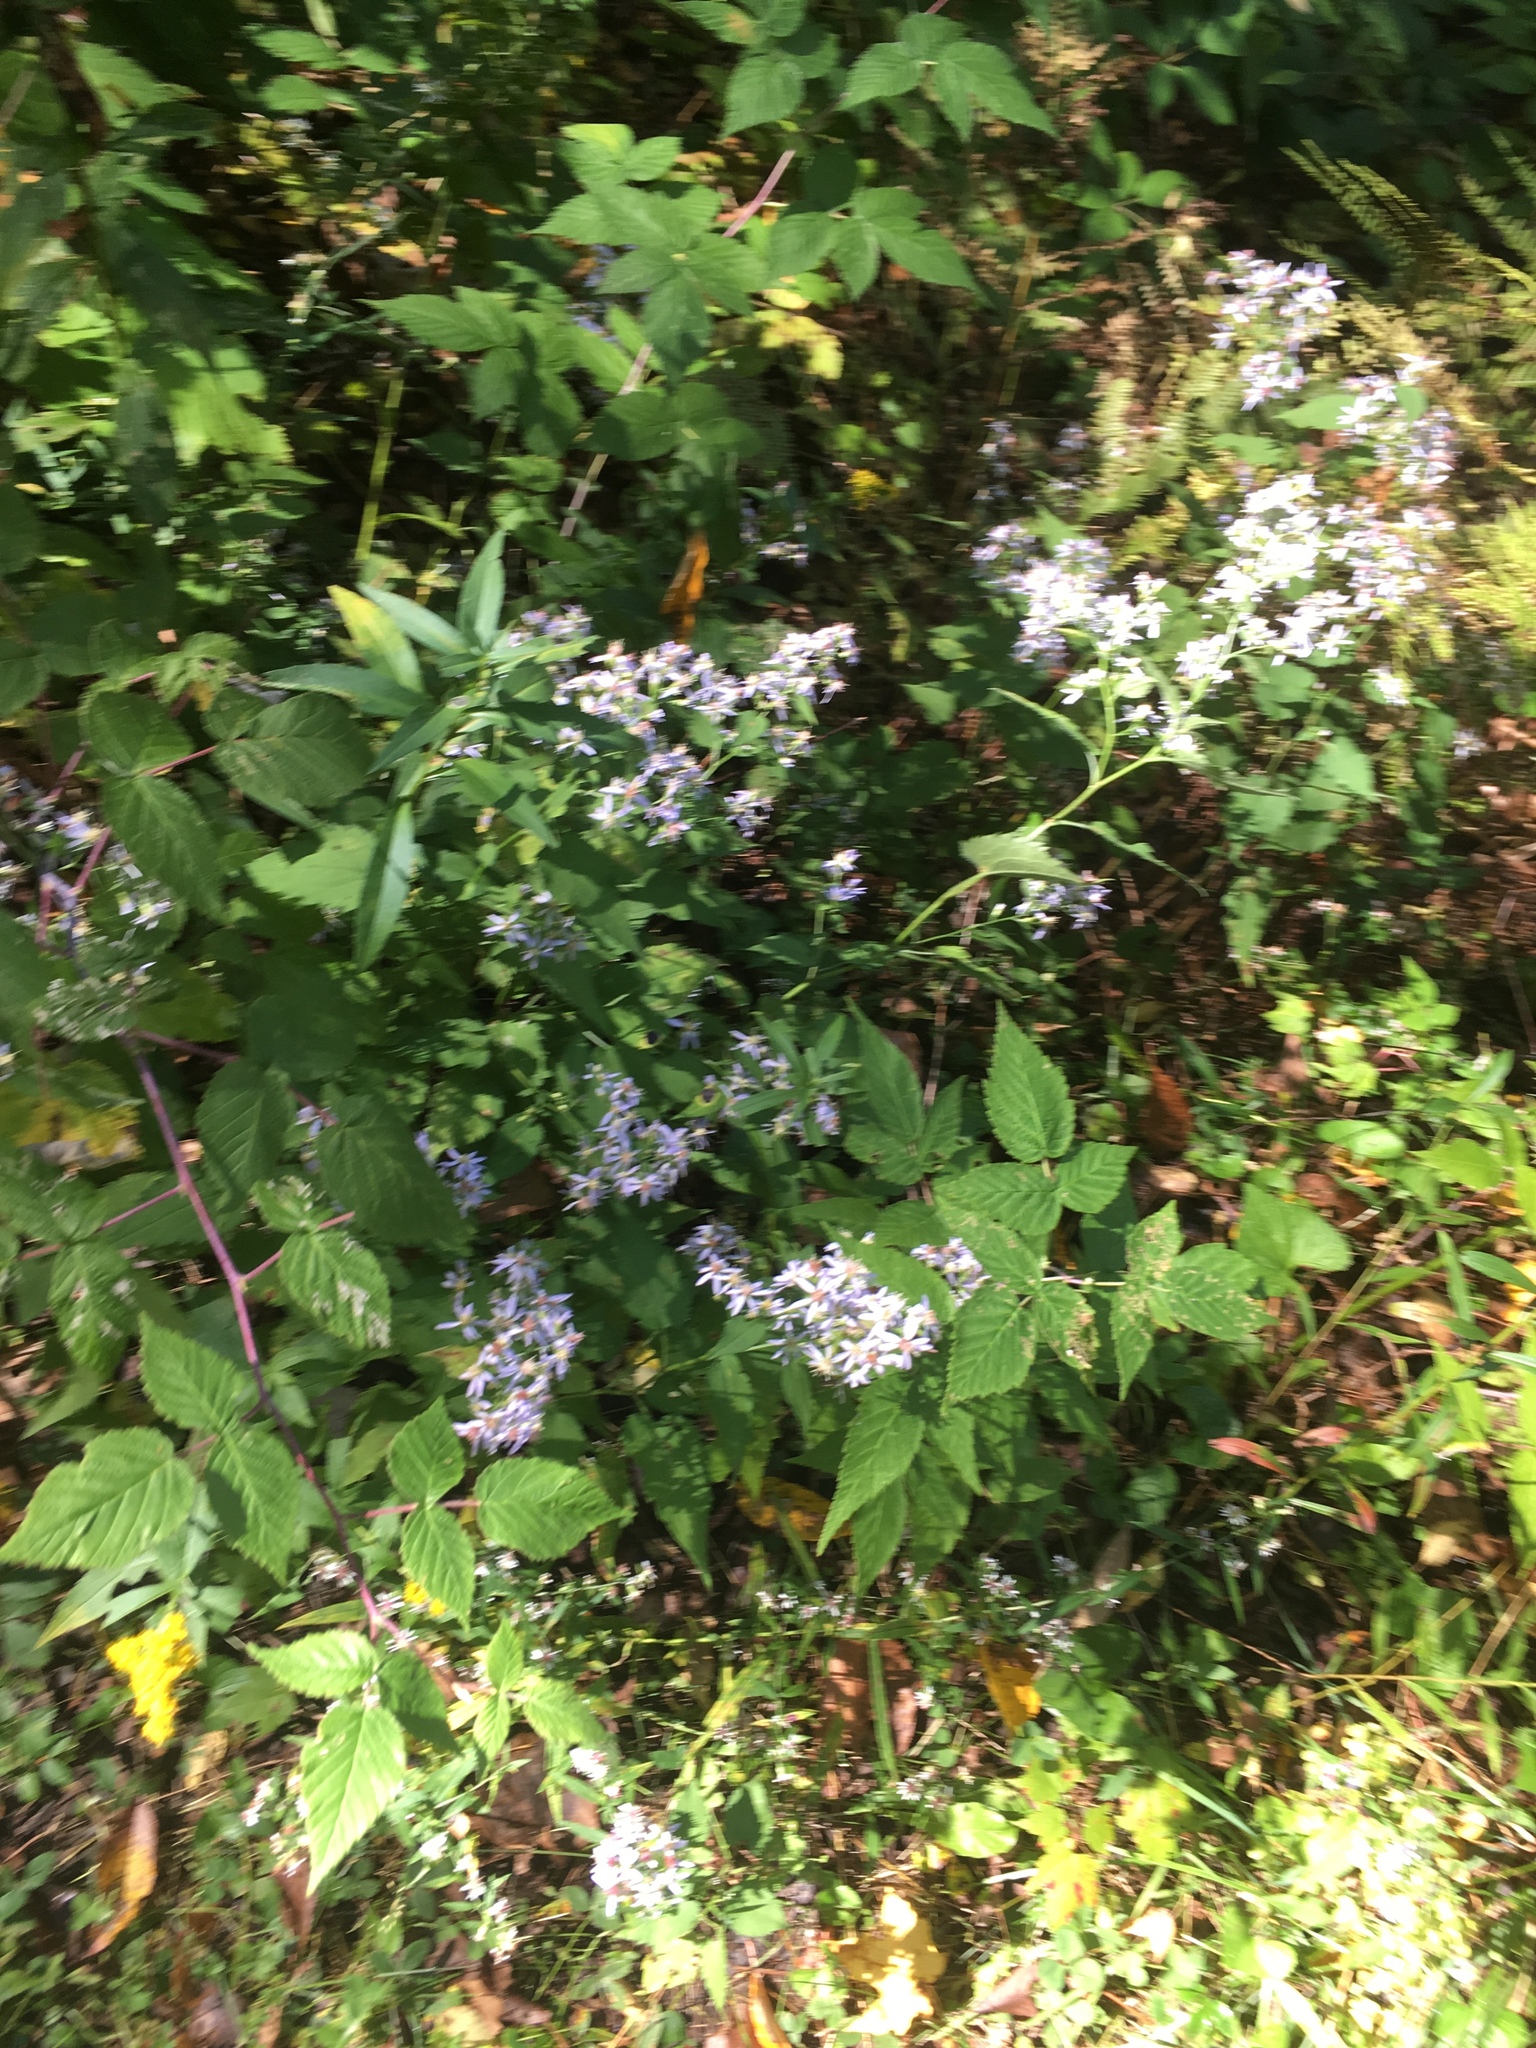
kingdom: Plantae
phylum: Tracheophyta
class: Magnoliopsida
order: Asterales
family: Asteraceae
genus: Symphyotrichum
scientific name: Symphyotrichum cordifolium
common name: Beeweed
